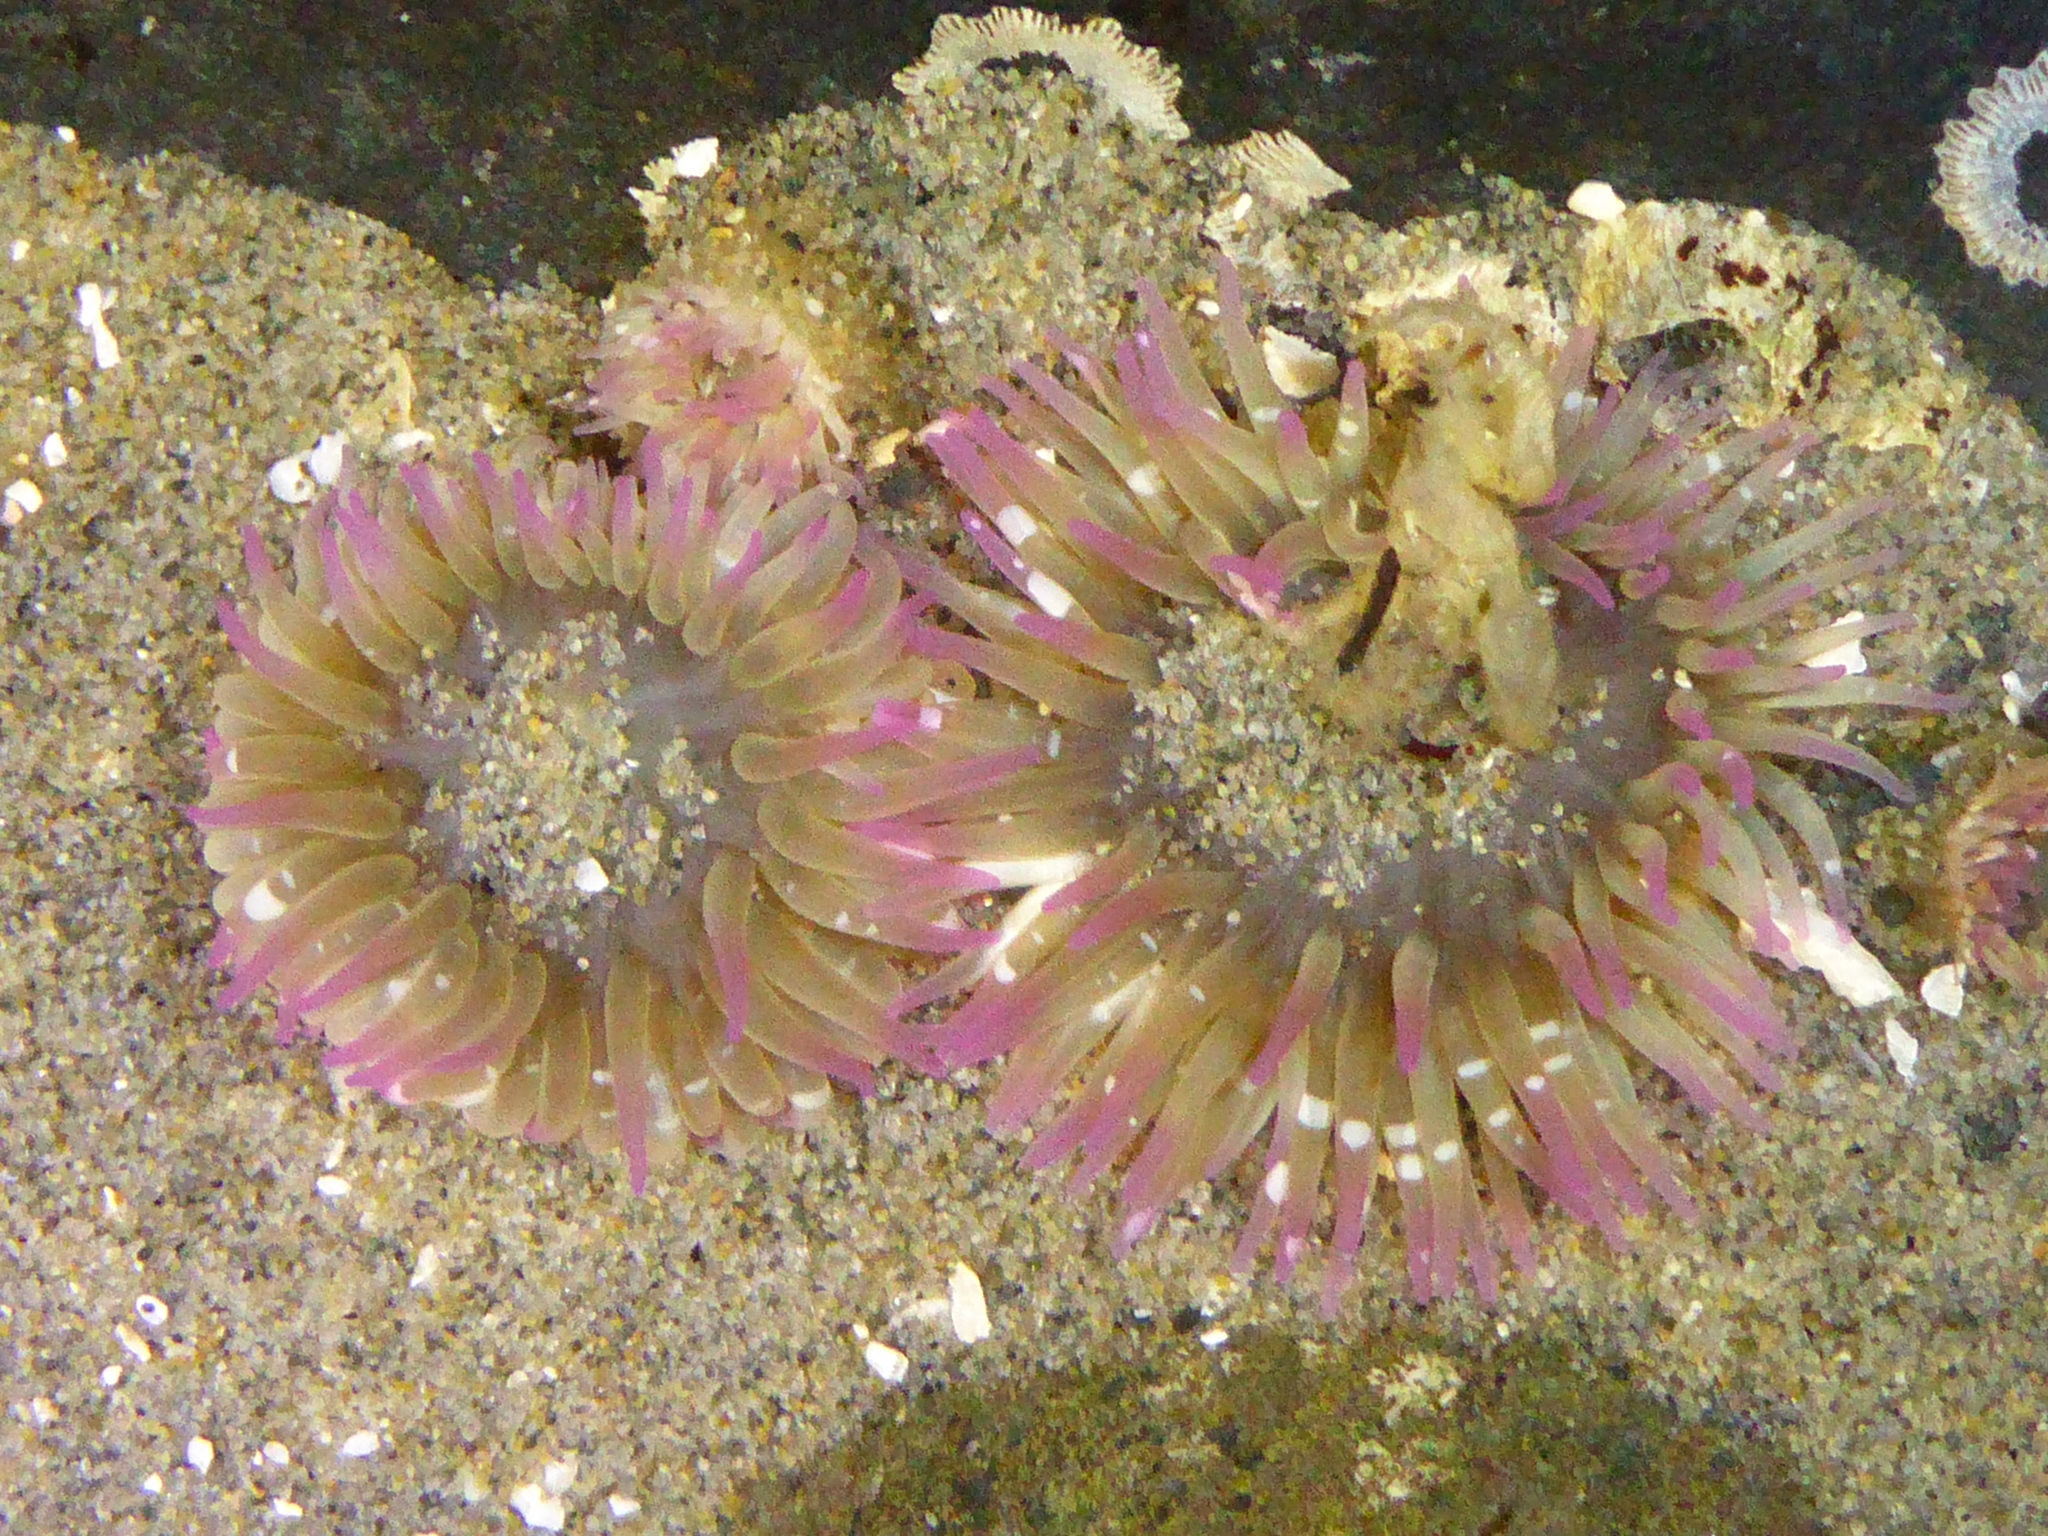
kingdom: Animalia
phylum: Cnidaria
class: Anthozoa
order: Actiniaria
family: Actiniidae
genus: Anthopleura
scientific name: Anthopleura elegantissima
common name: Clonal anemone
